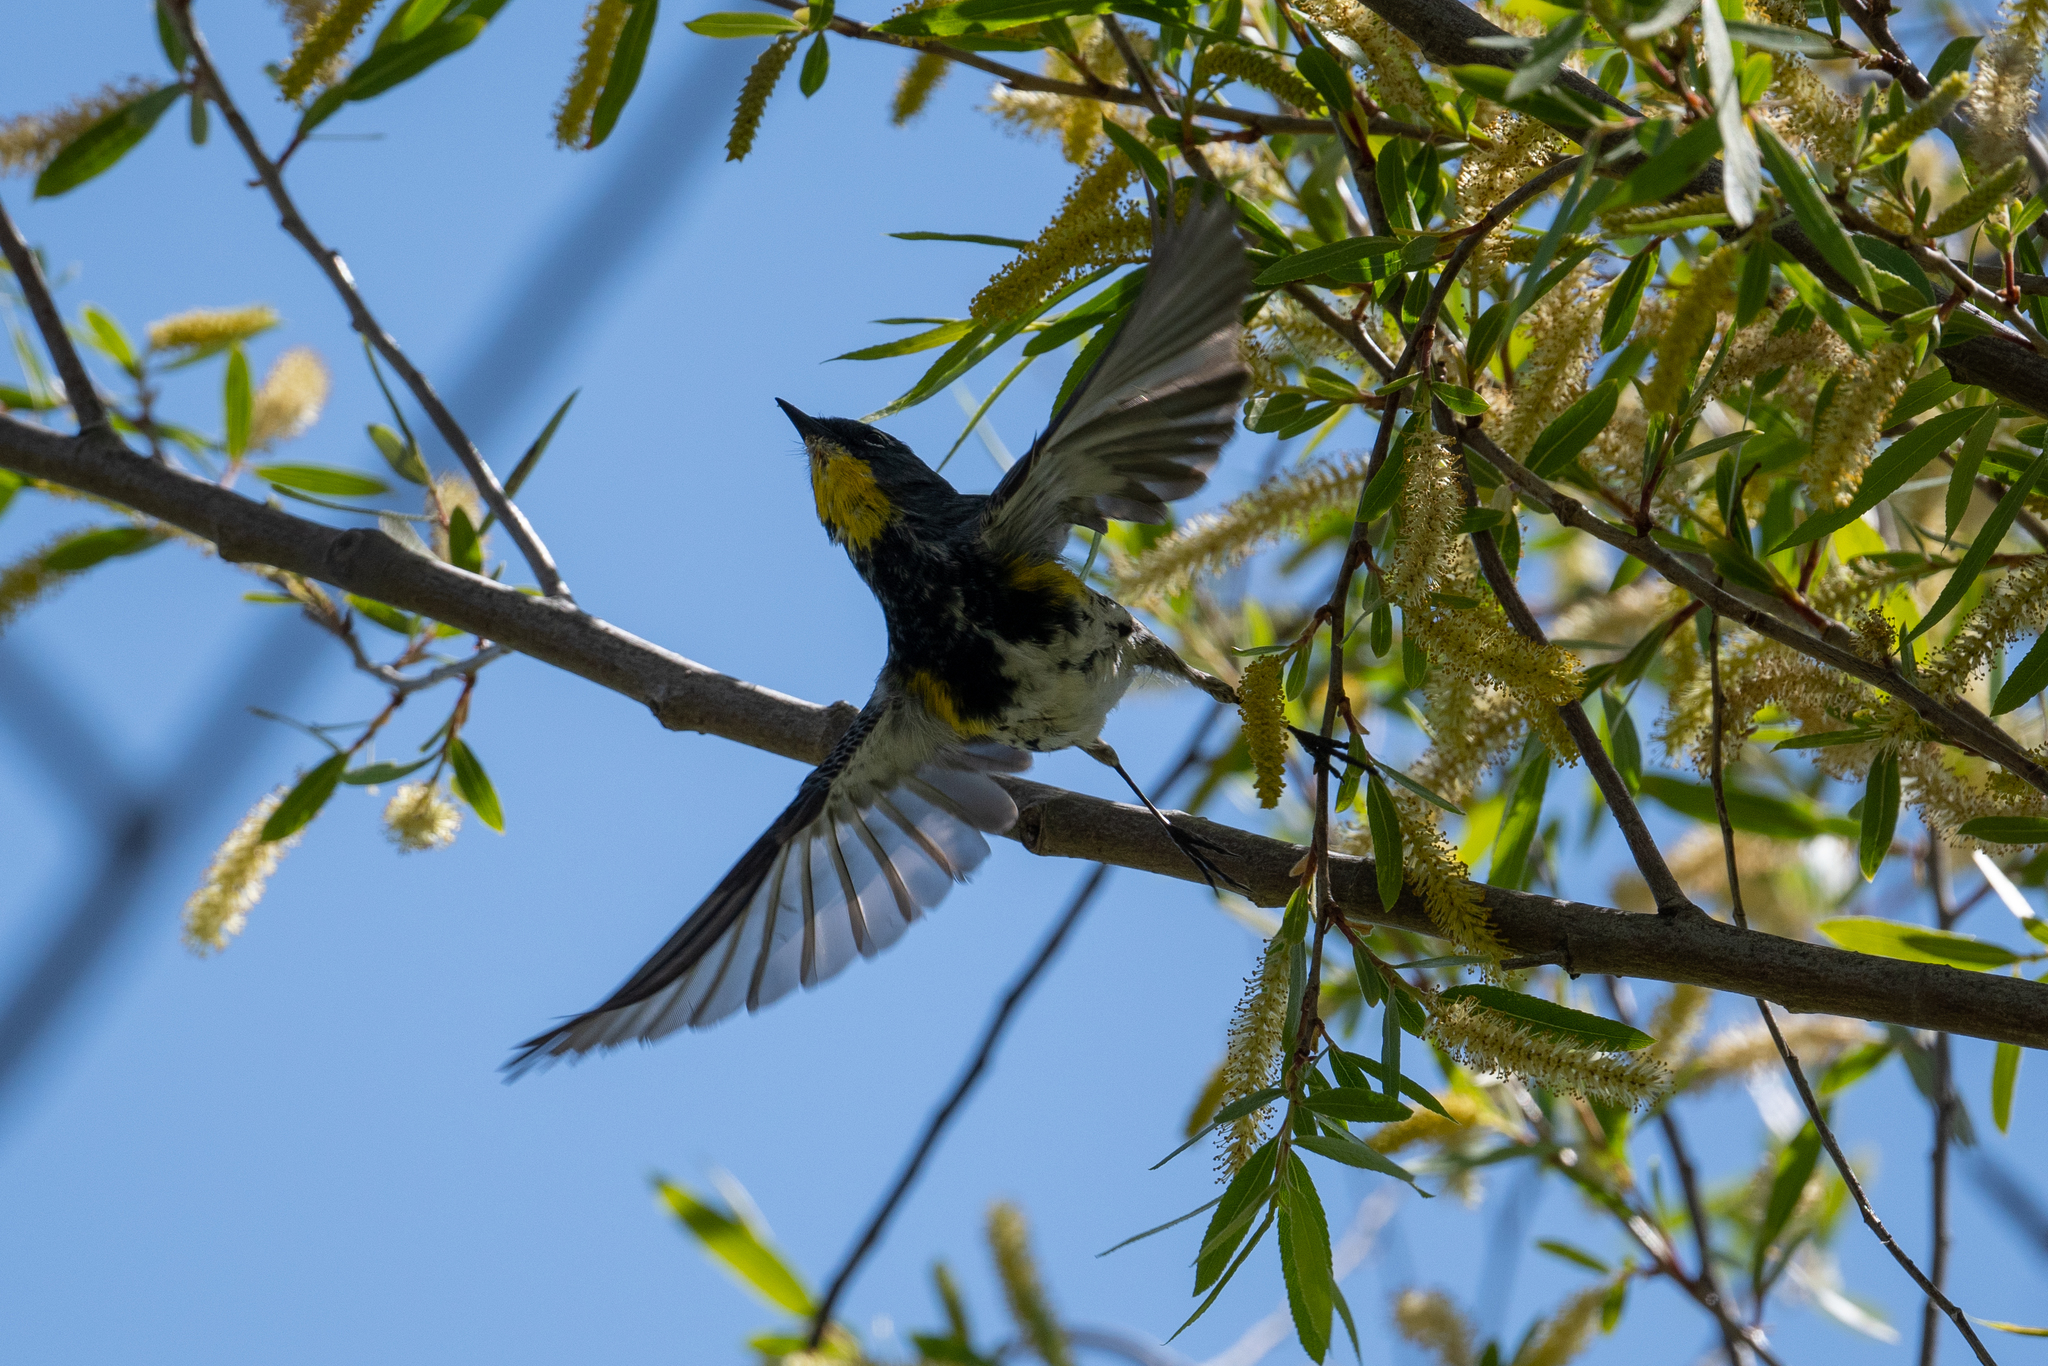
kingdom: Animalia
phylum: Chordata
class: Aves
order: Passeriformes
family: Parulidae
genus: Setophaga
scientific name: Setophaga coronata
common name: Myrtle warbler
